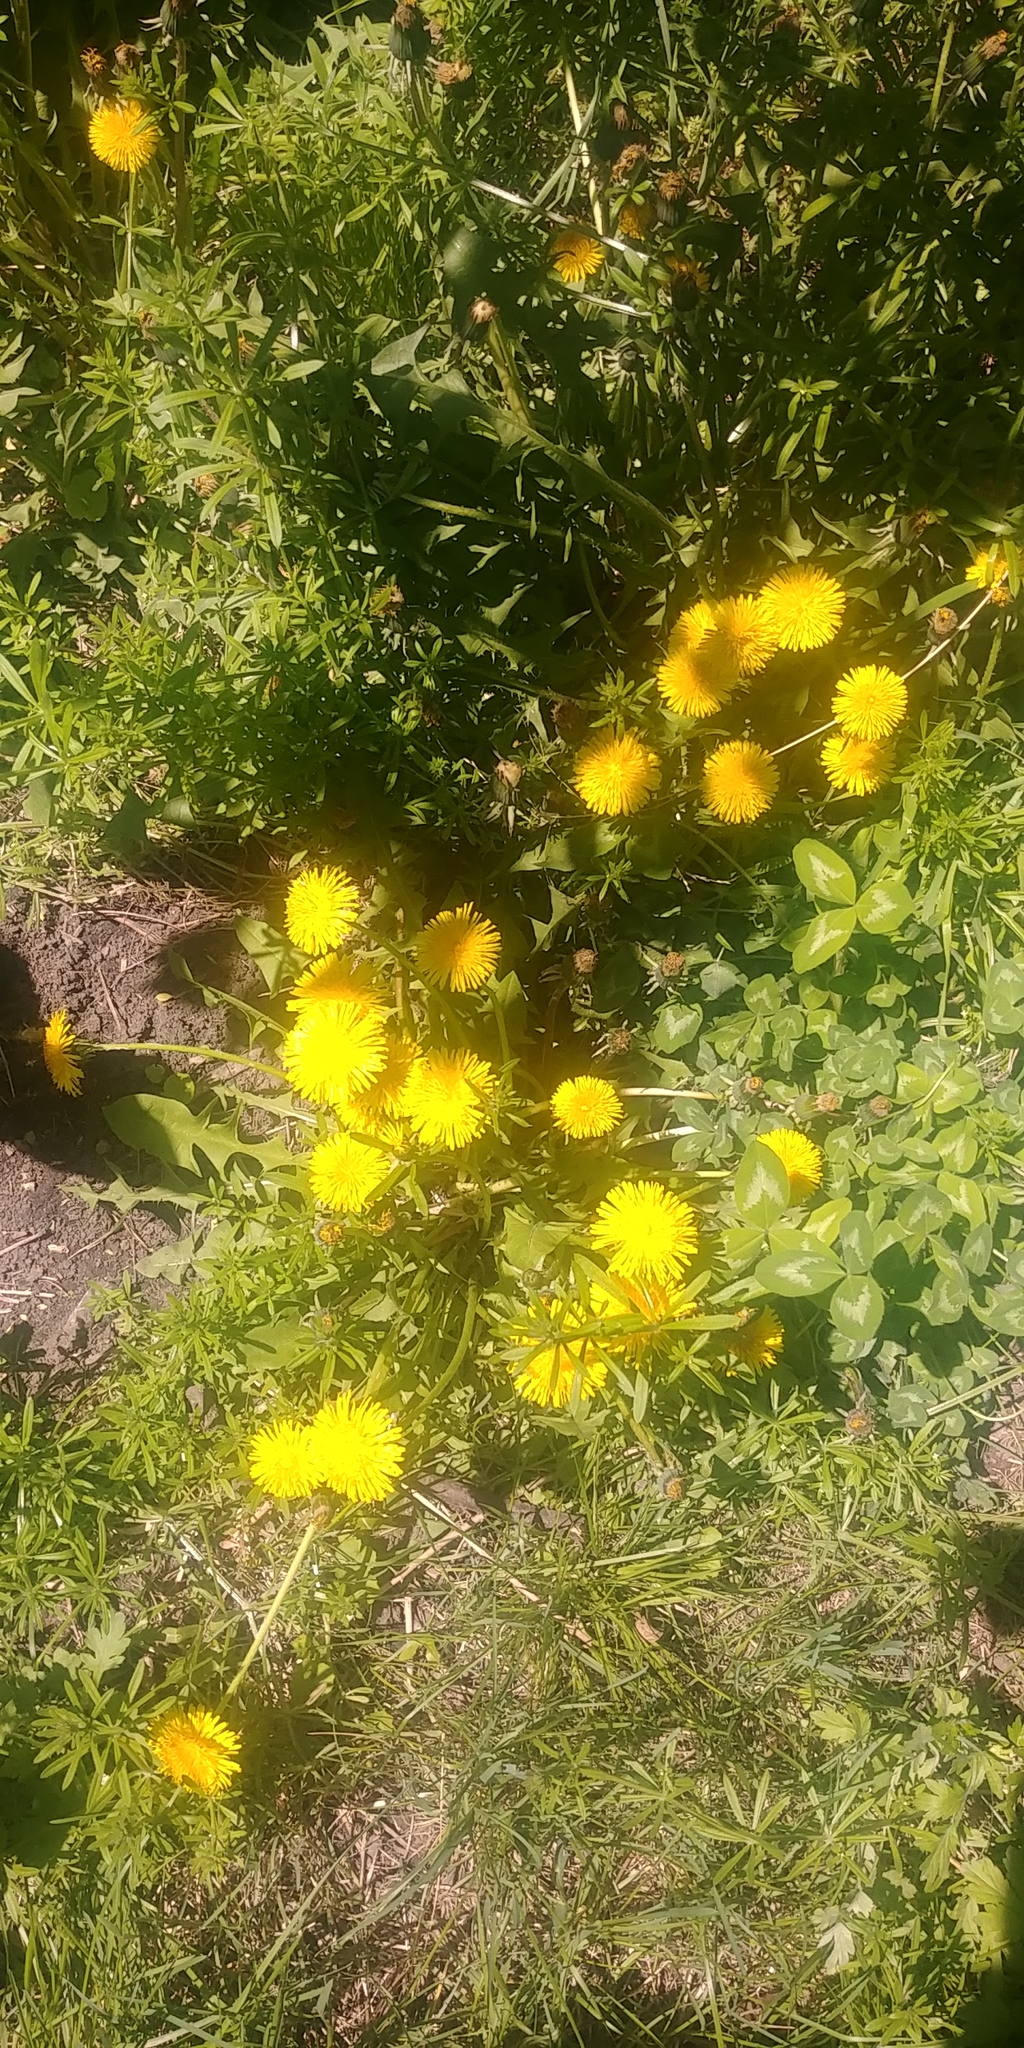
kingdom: Plantae
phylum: Tracheophyta
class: Magnoliopsida
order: Asterales
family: Asteraceae
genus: Taraxacum
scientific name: Taraxacum officinale
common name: Common dandelion
